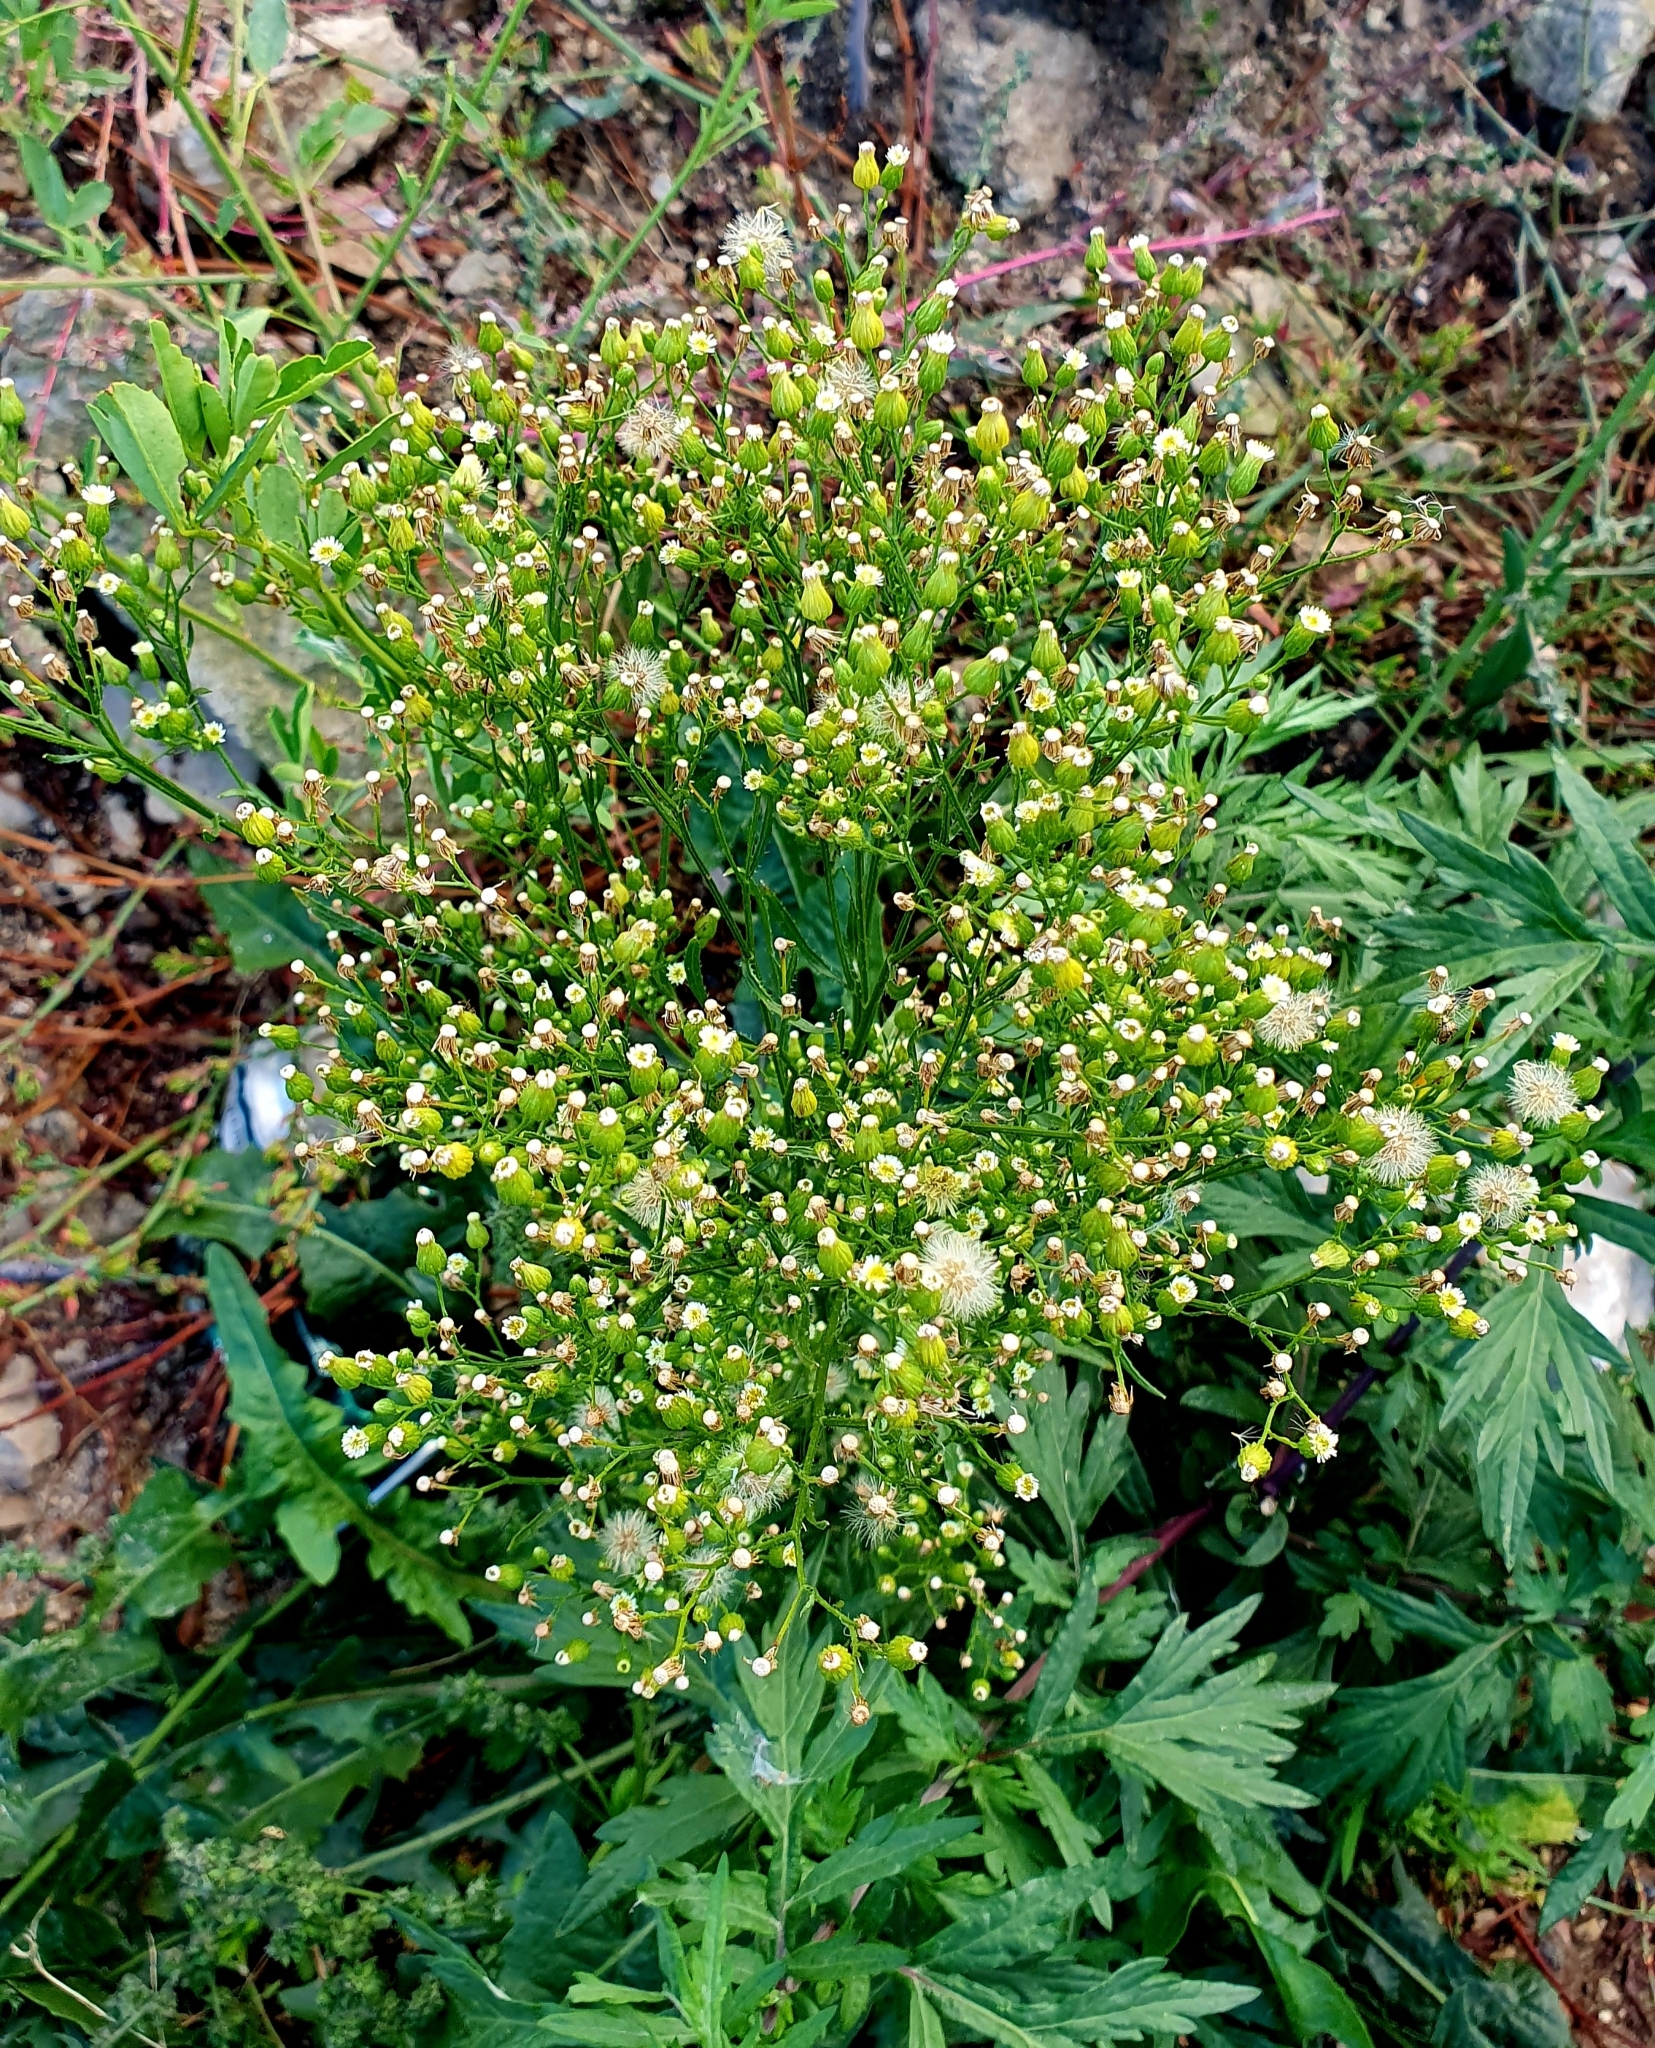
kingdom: Plantae
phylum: Tracheophyta
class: Magnoliopsida
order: Asterales
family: Asteraceae
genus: Erigeron
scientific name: Erigeron canadensis
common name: Canadian fleabane
